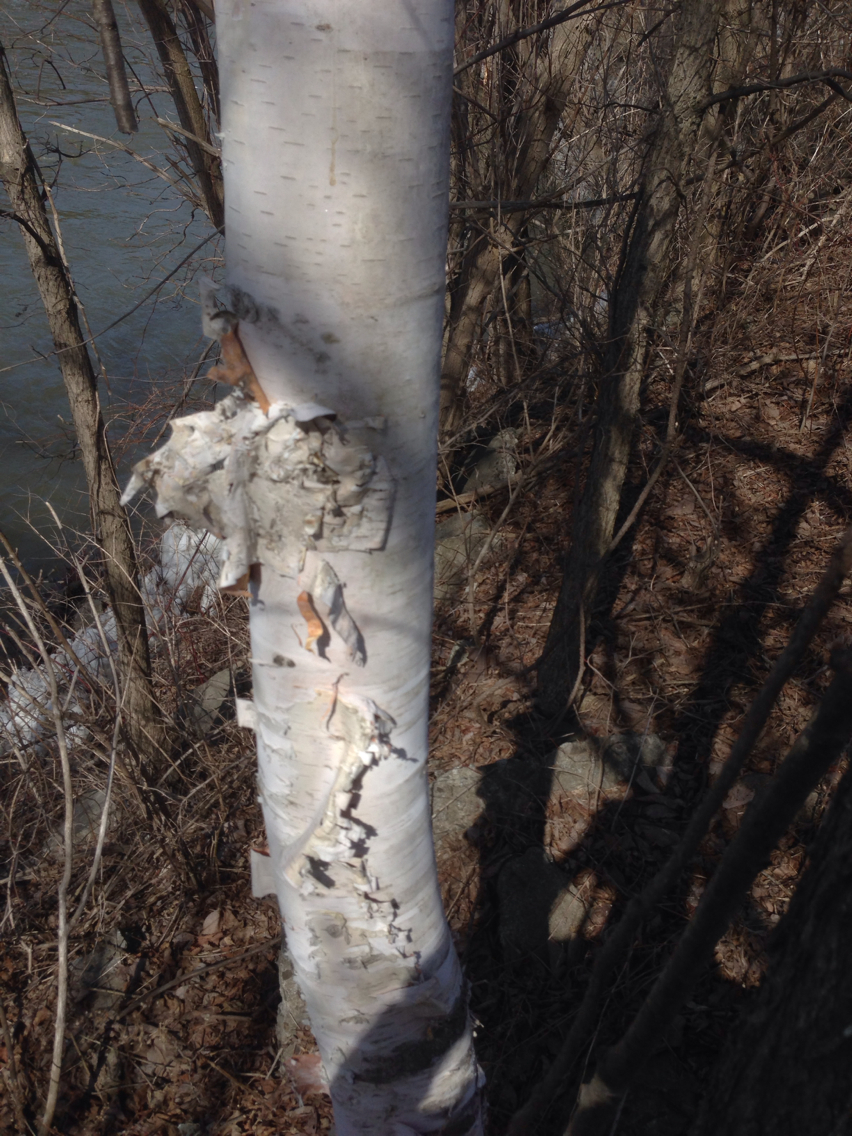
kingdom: Plantae
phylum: Tracheophyta
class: Magnoliopsida
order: Fagales
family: Betulaceae
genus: Betula
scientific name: Betula papyrifera
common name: Paper birch
